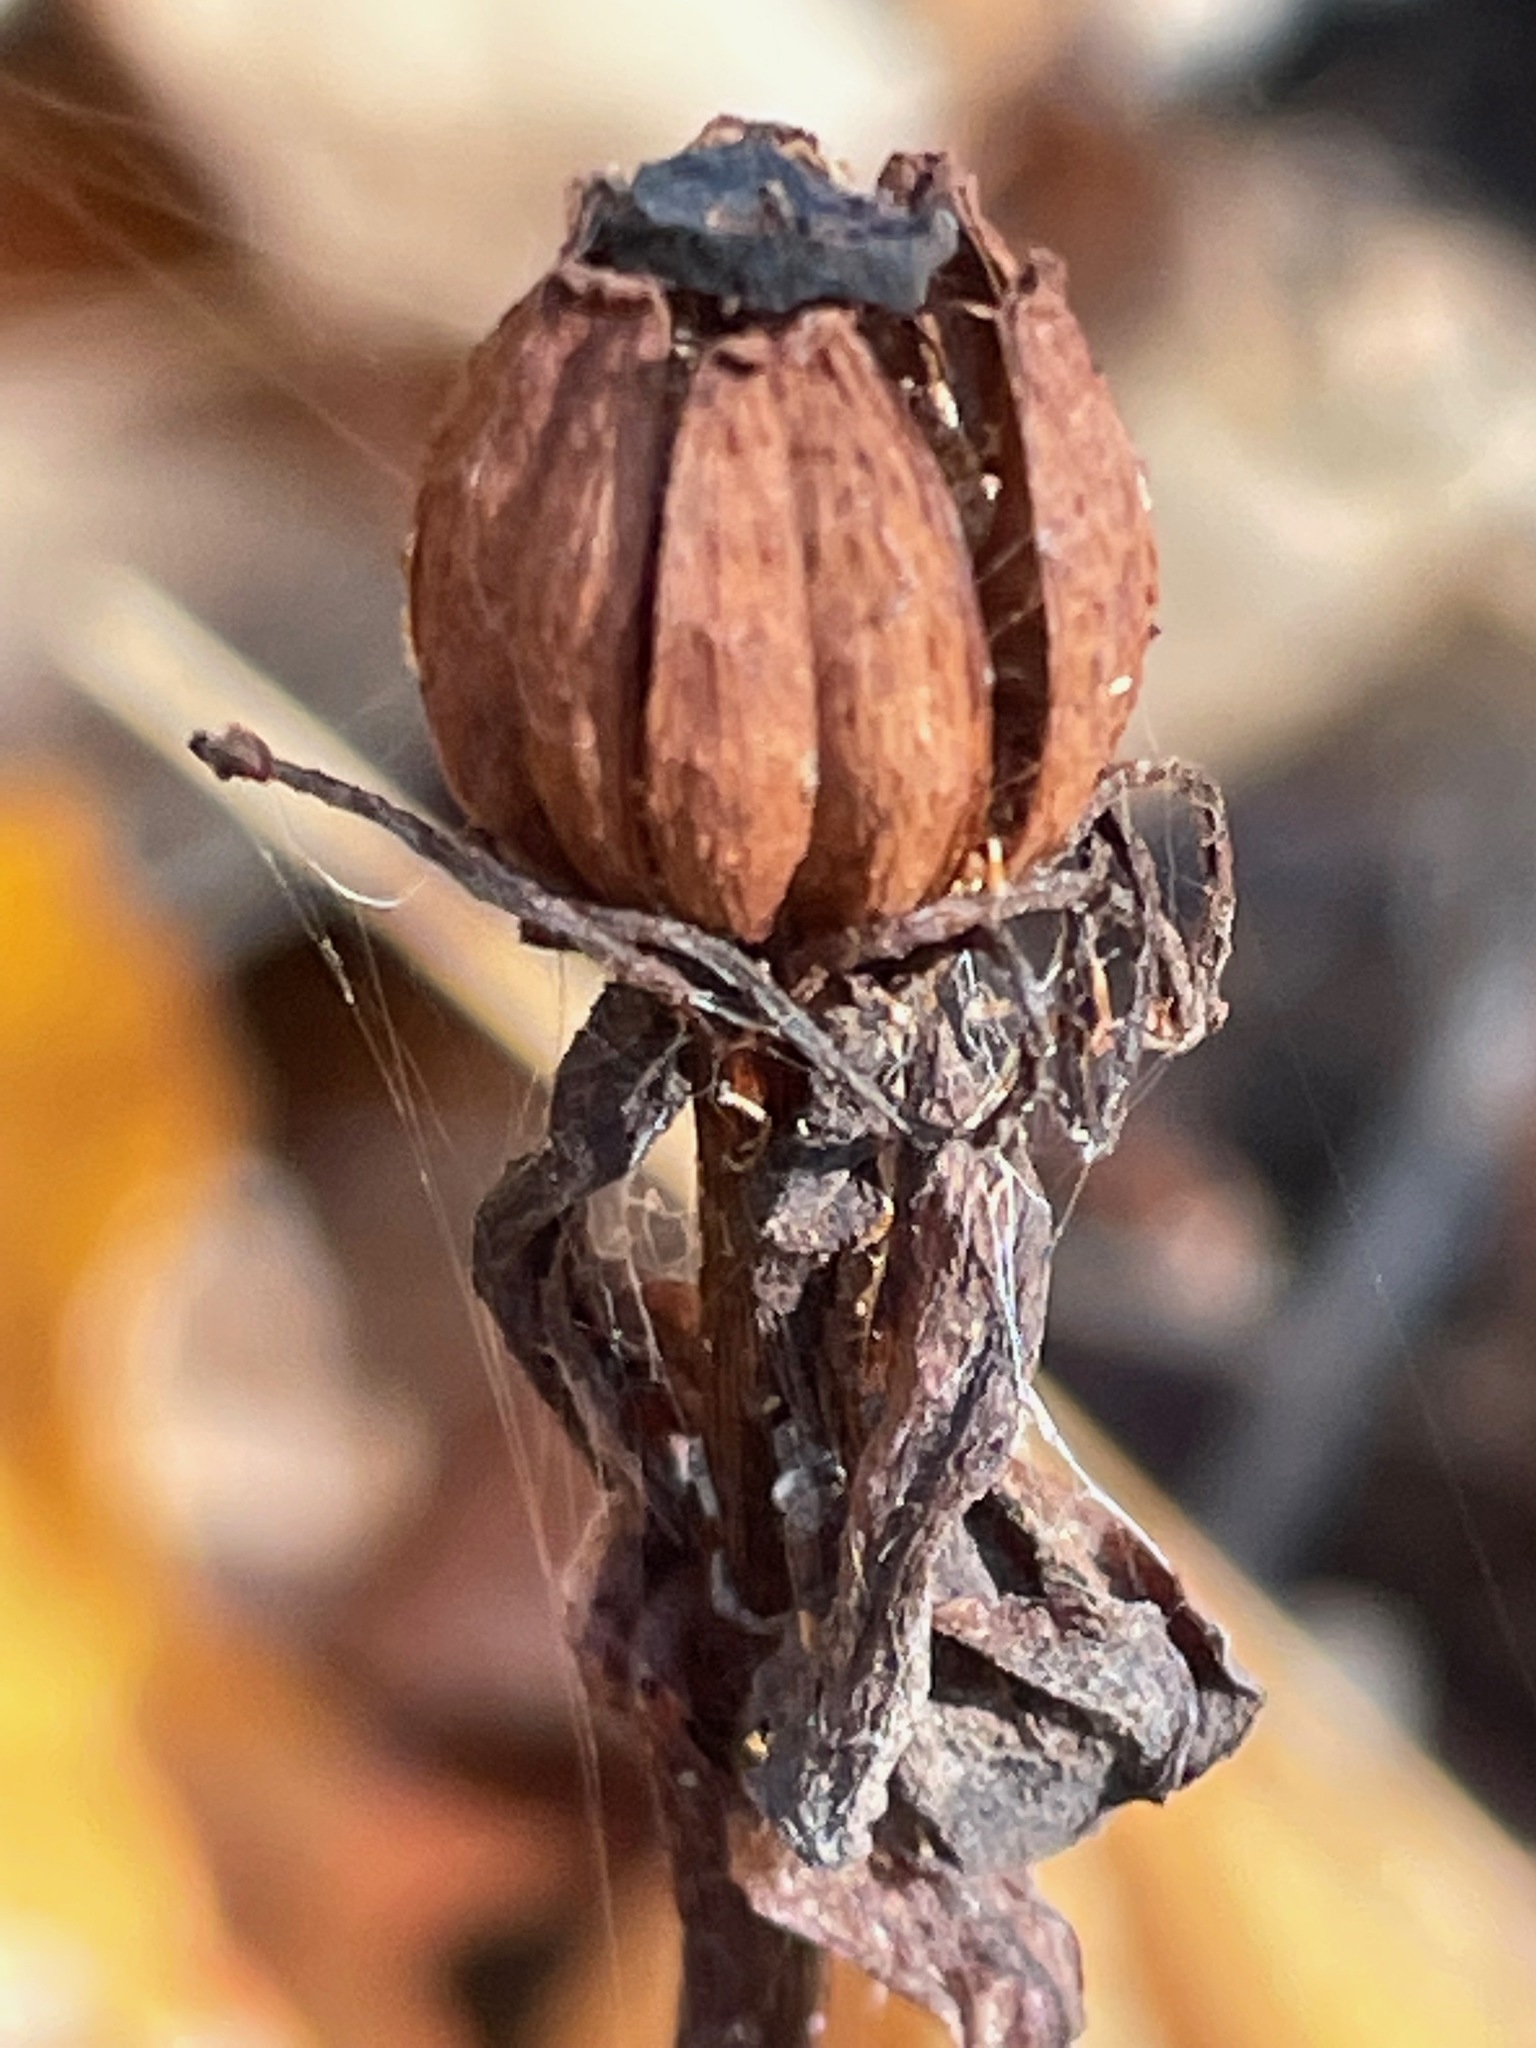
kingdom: Plantae
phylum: Tracheophyta
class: Magnoliopsida
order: Ericales
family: Ericaceae
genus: Monotropa
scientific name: Monotropa uniflora
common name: Convulsion root
